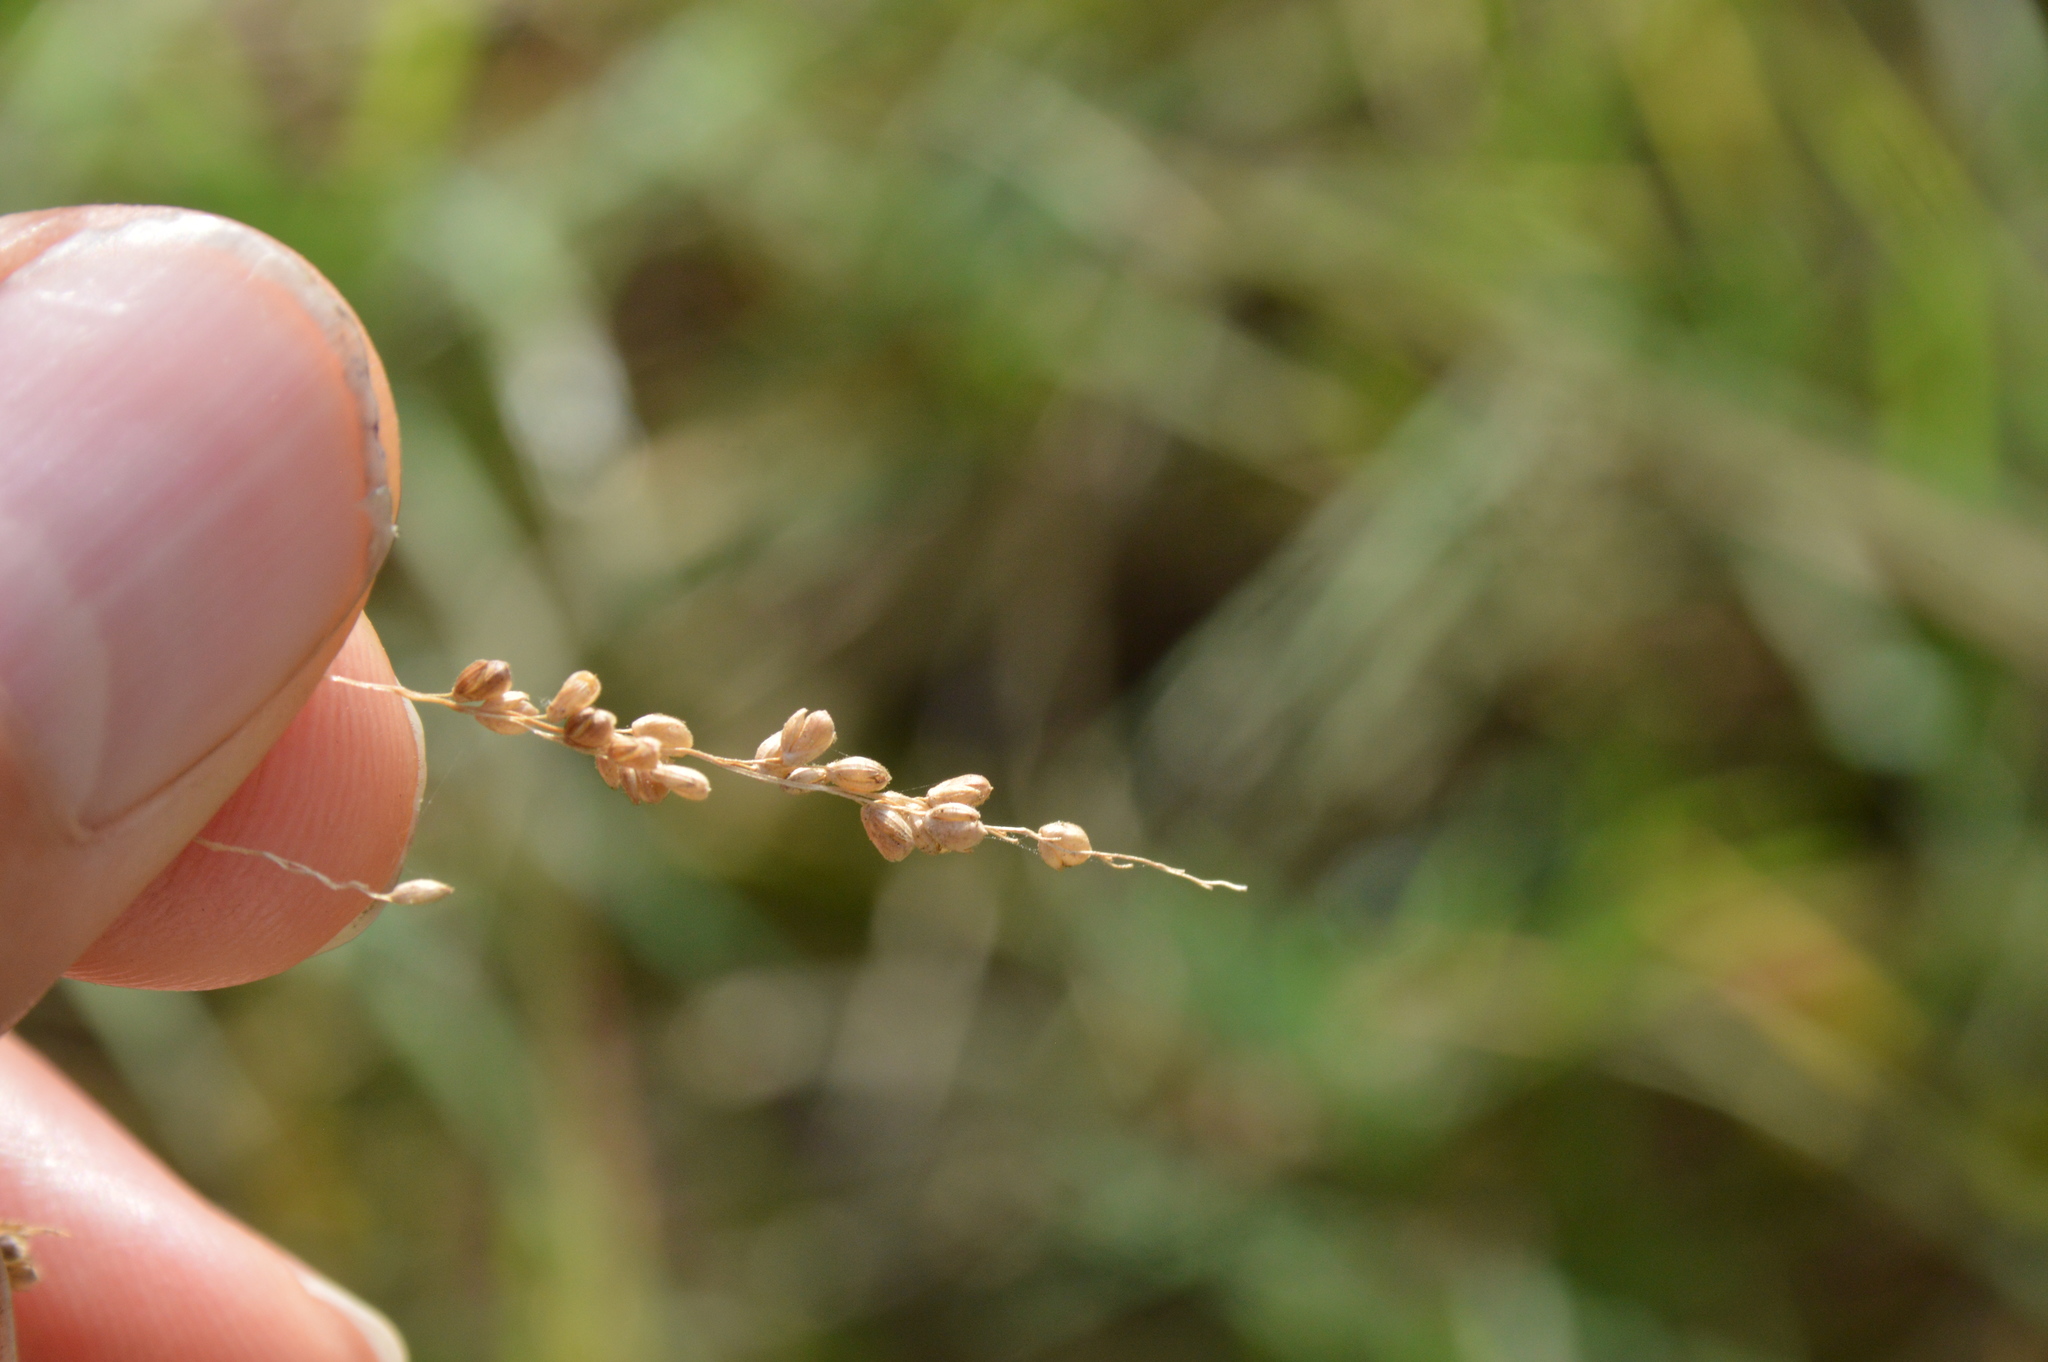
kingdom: Plantae
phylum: Tracheophyta
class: Liliopsida
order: Poales
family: Poaceae
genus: Steinchisma
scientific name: Steinchisma hians
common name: Gaping panic grass
